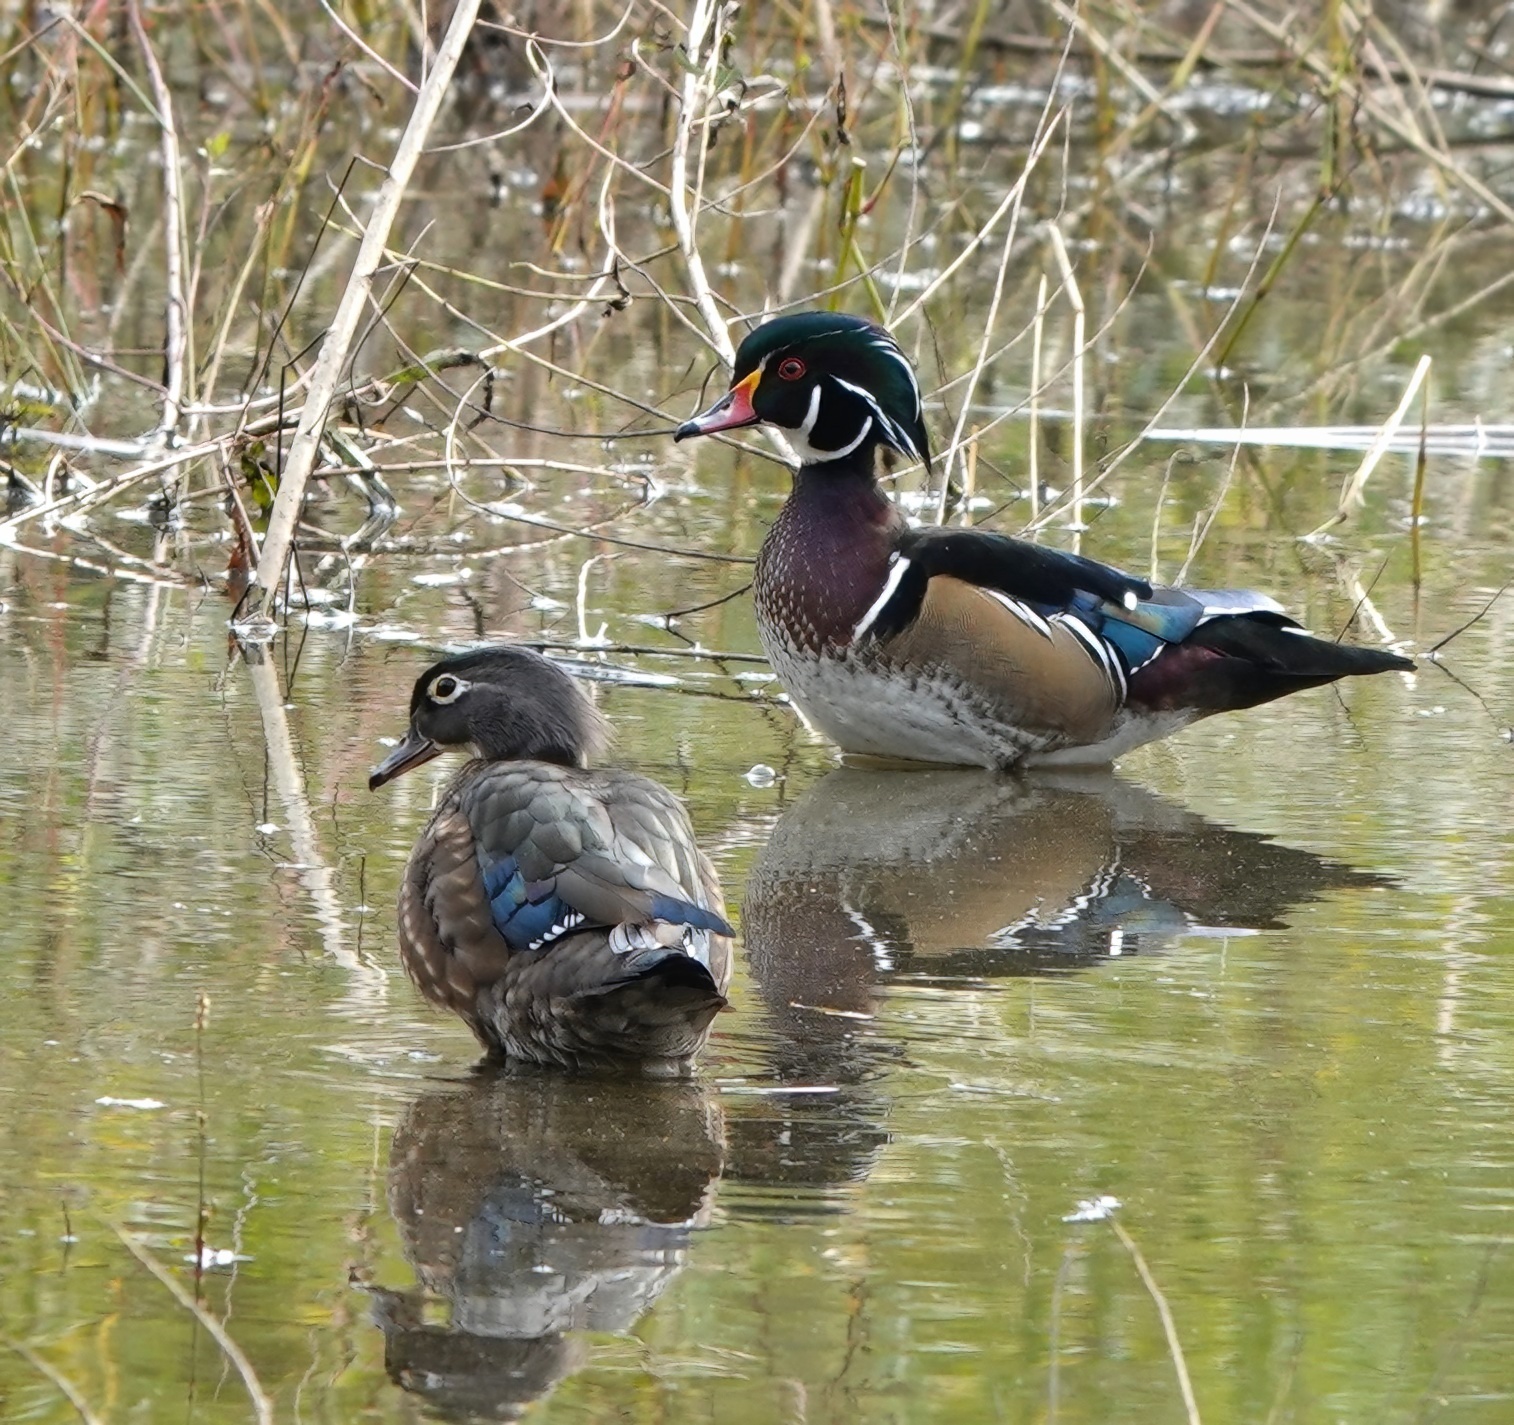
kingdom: Animalia
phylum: Chordata
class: Aves
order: Anseriformes
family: Anatidae
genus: Aix
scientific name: Aix sponsa
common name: Wood duck
